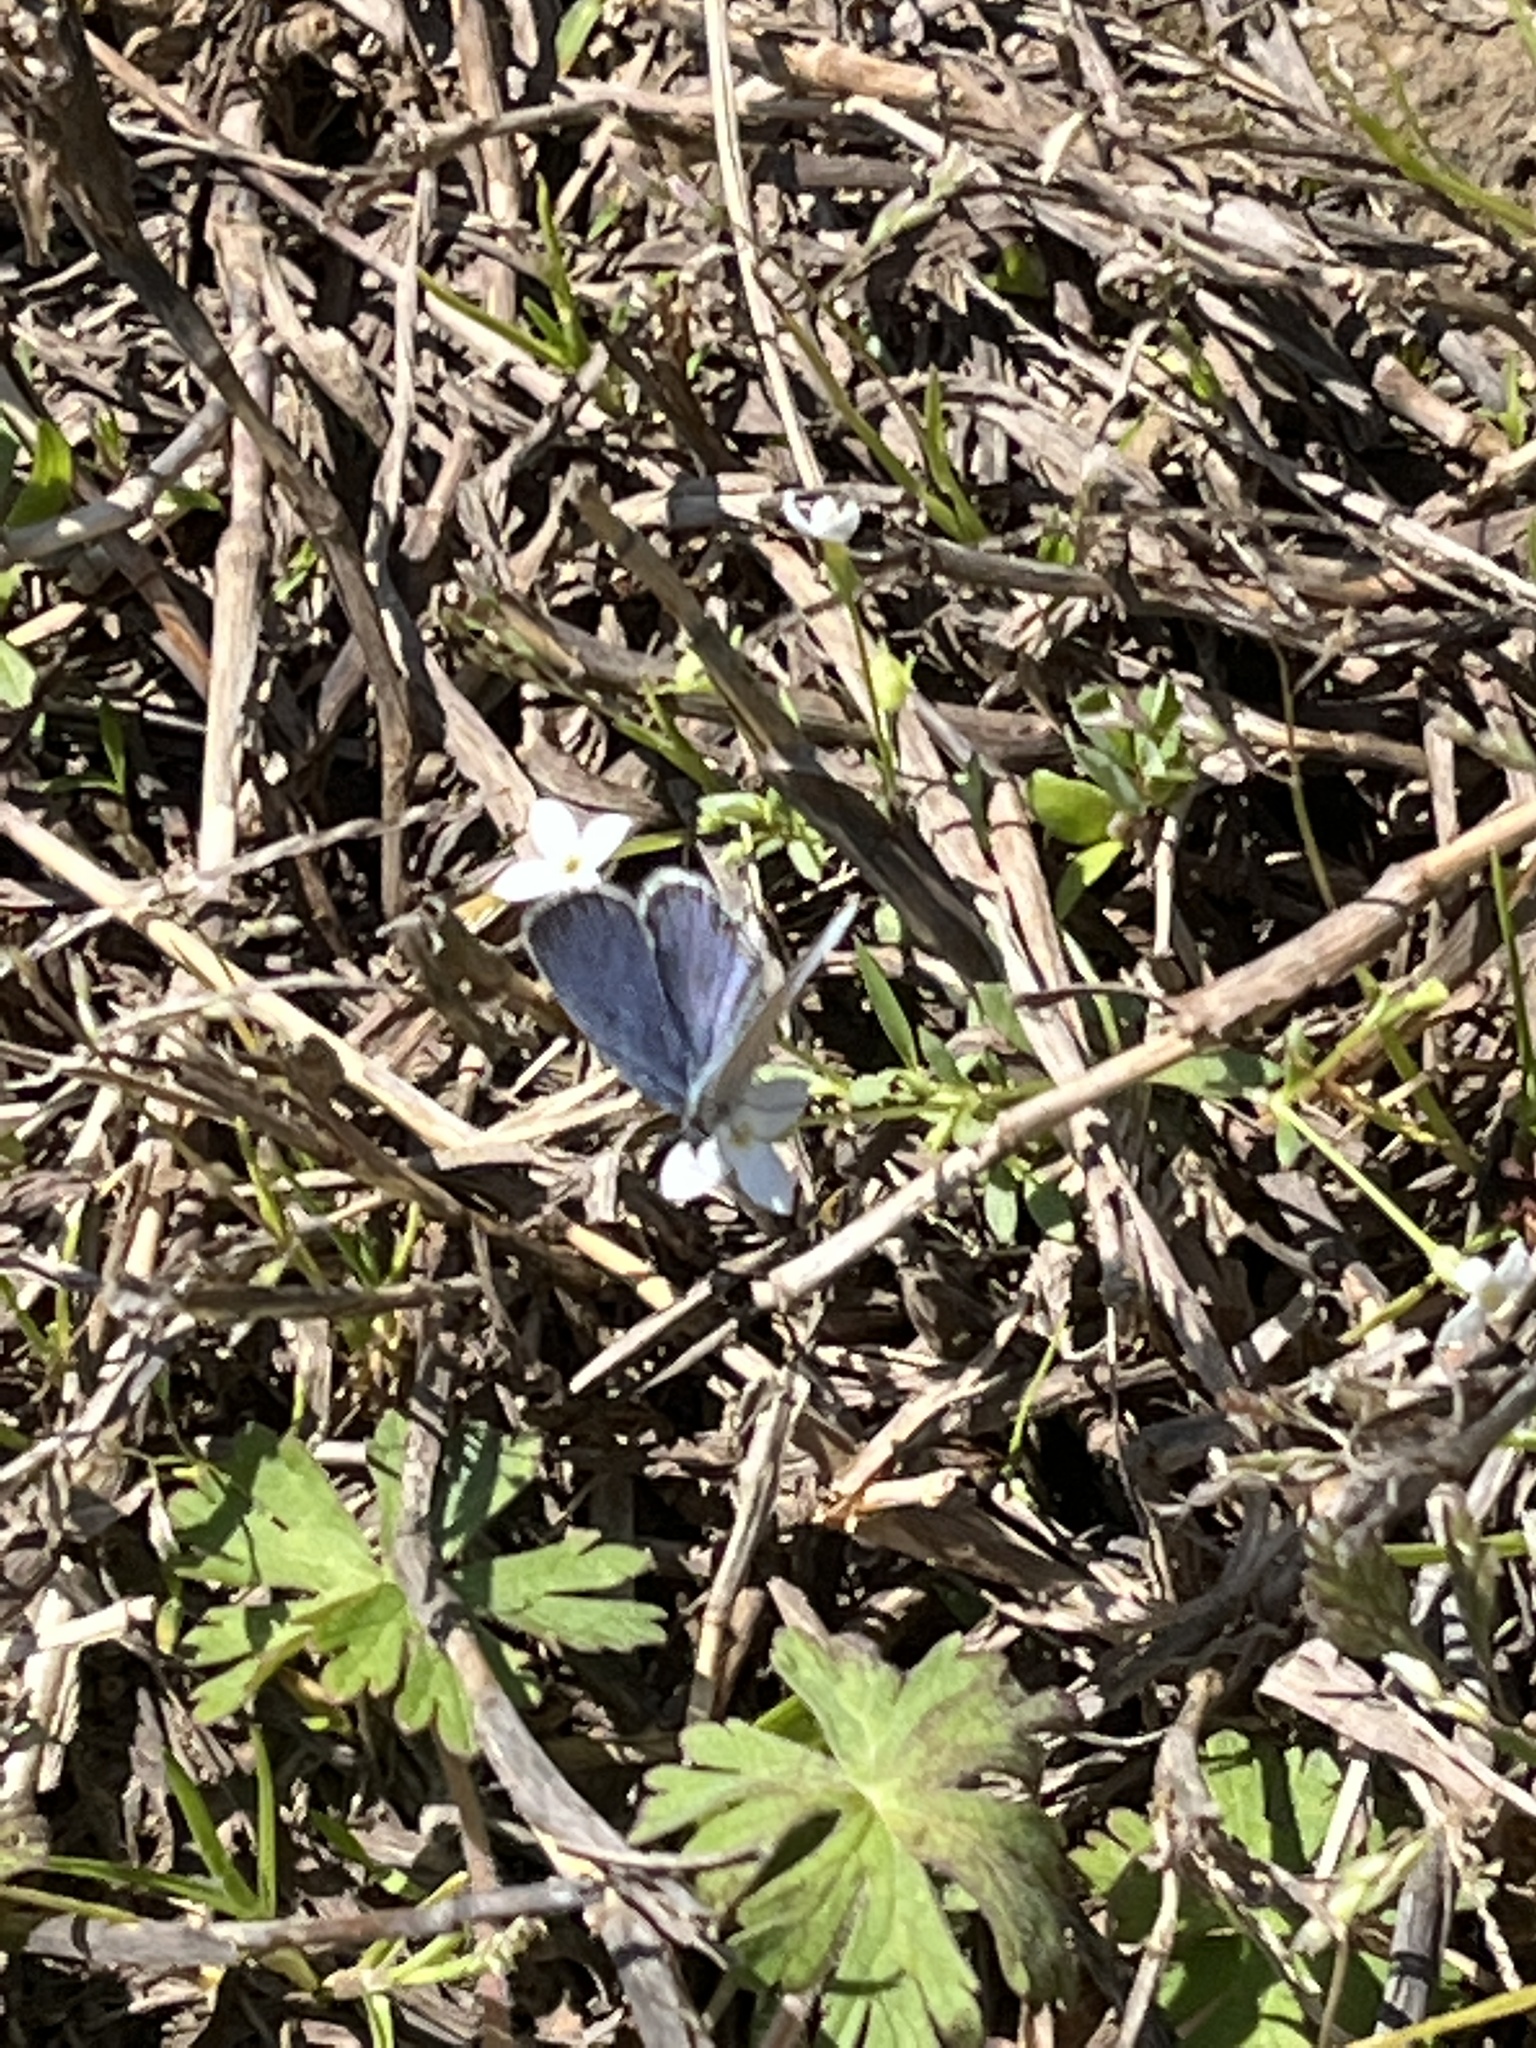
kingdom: Animalia
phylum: Arthropoda
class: Insecta
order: Lepidoptera
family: Lycaenidae
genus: Elkalyce
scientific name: Elkalyce comyntas
